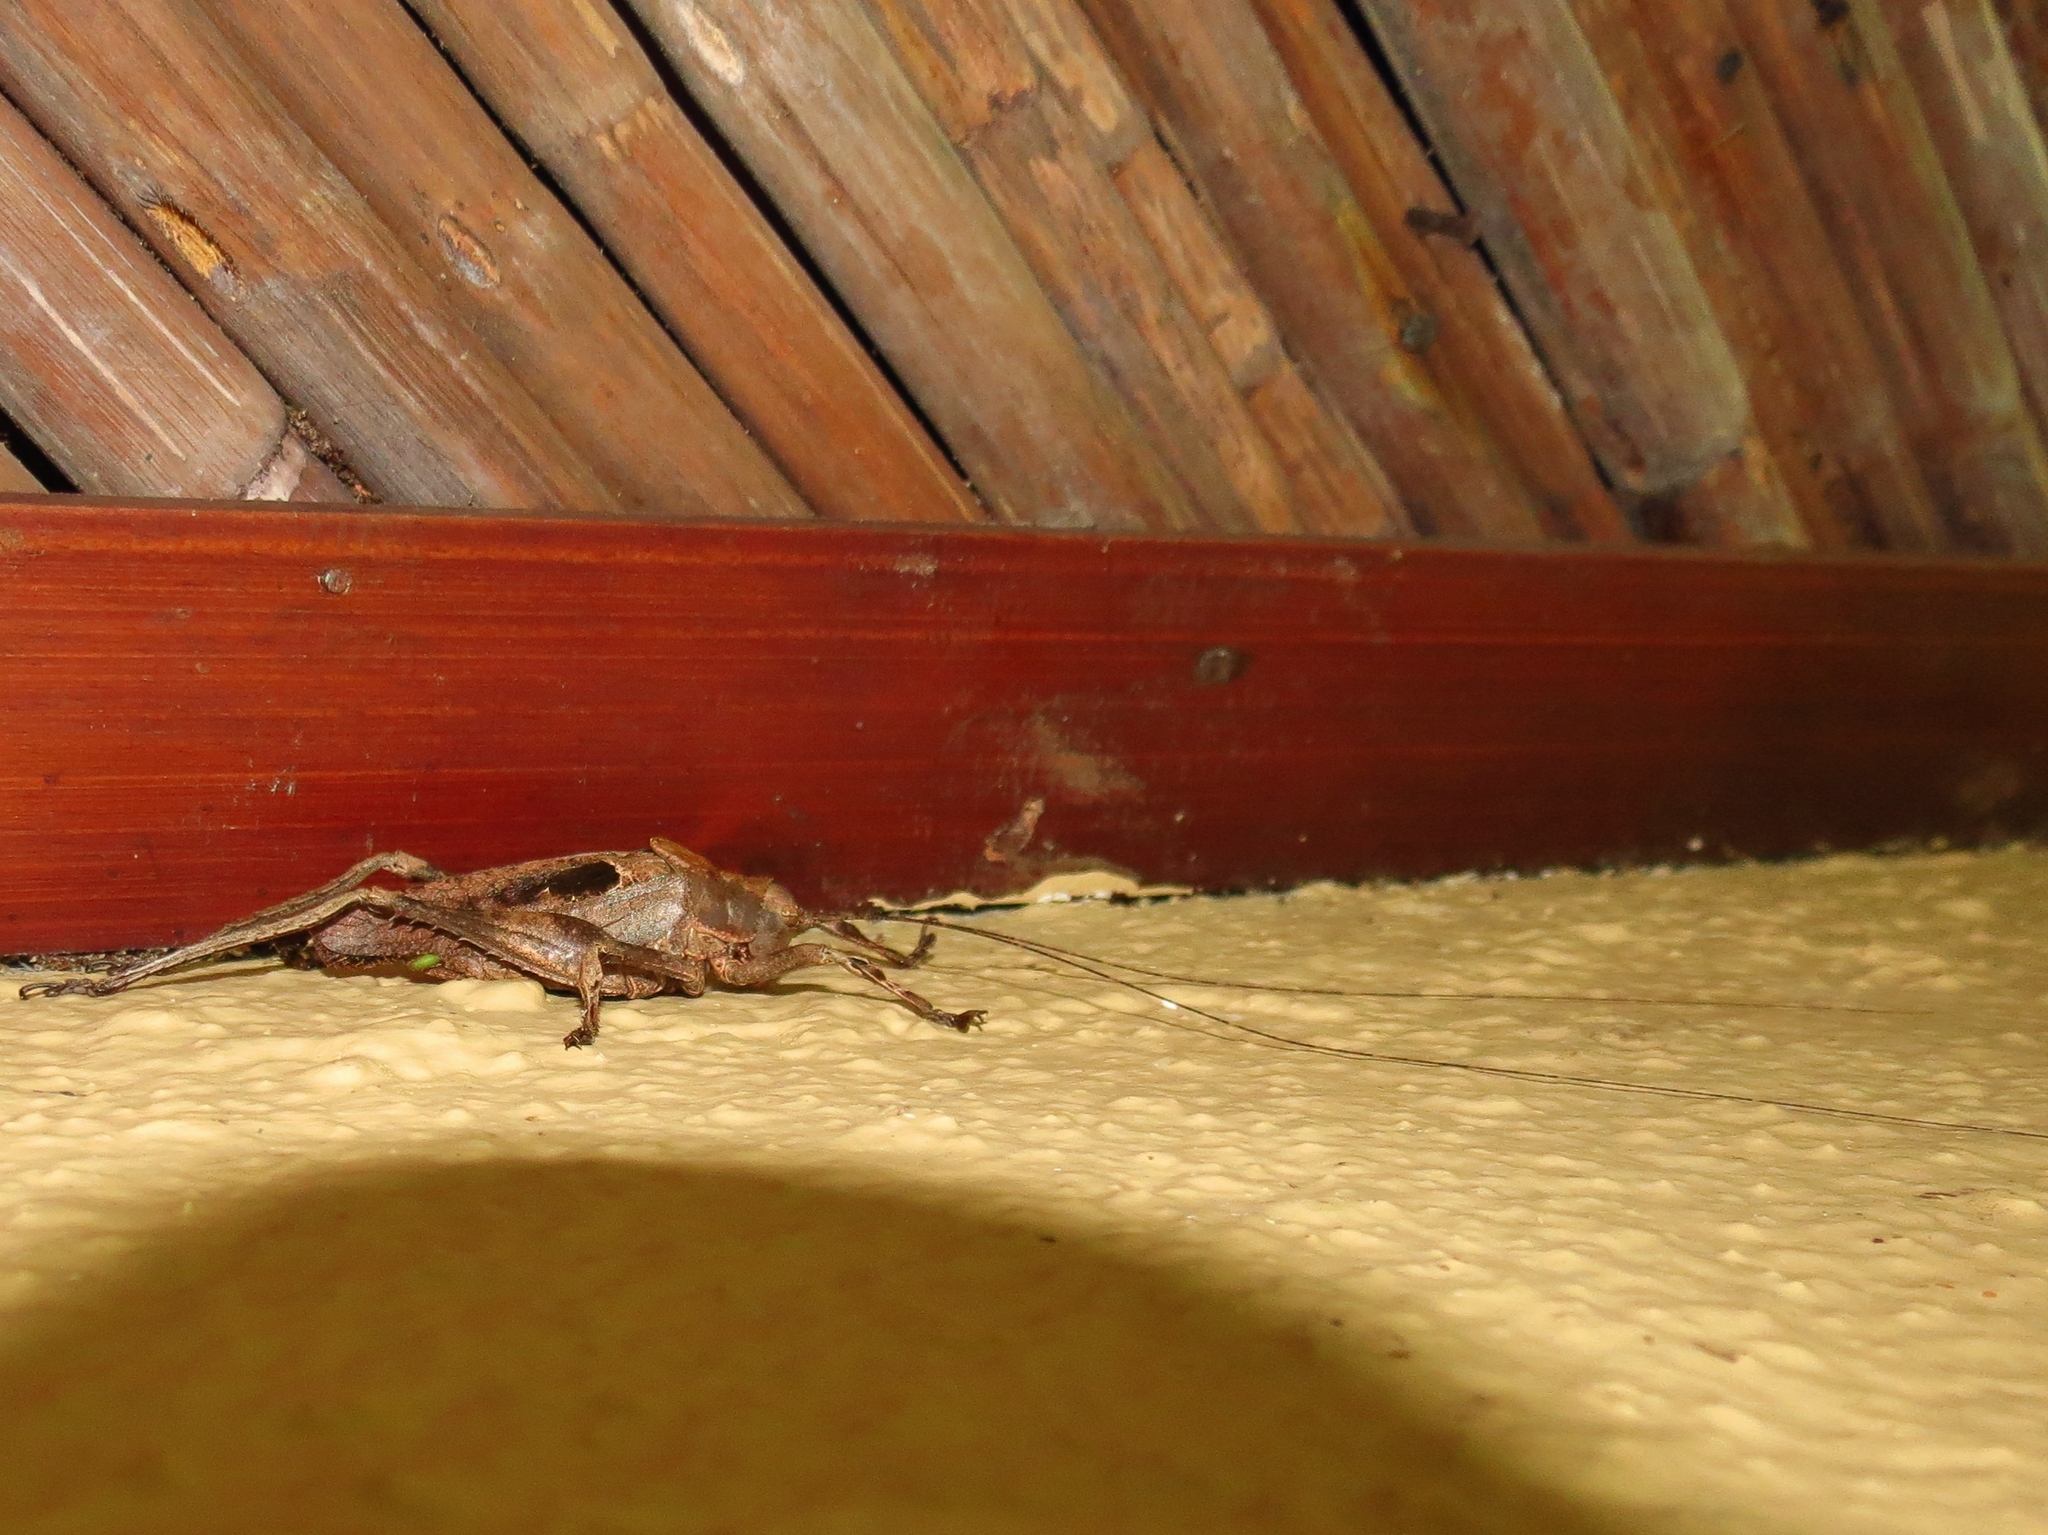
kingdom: Animalia
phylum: Arthropoda
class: Insecta
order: Orthoptera
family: Tettigoniidae
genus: Balboana
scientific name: Balboana tibialis
